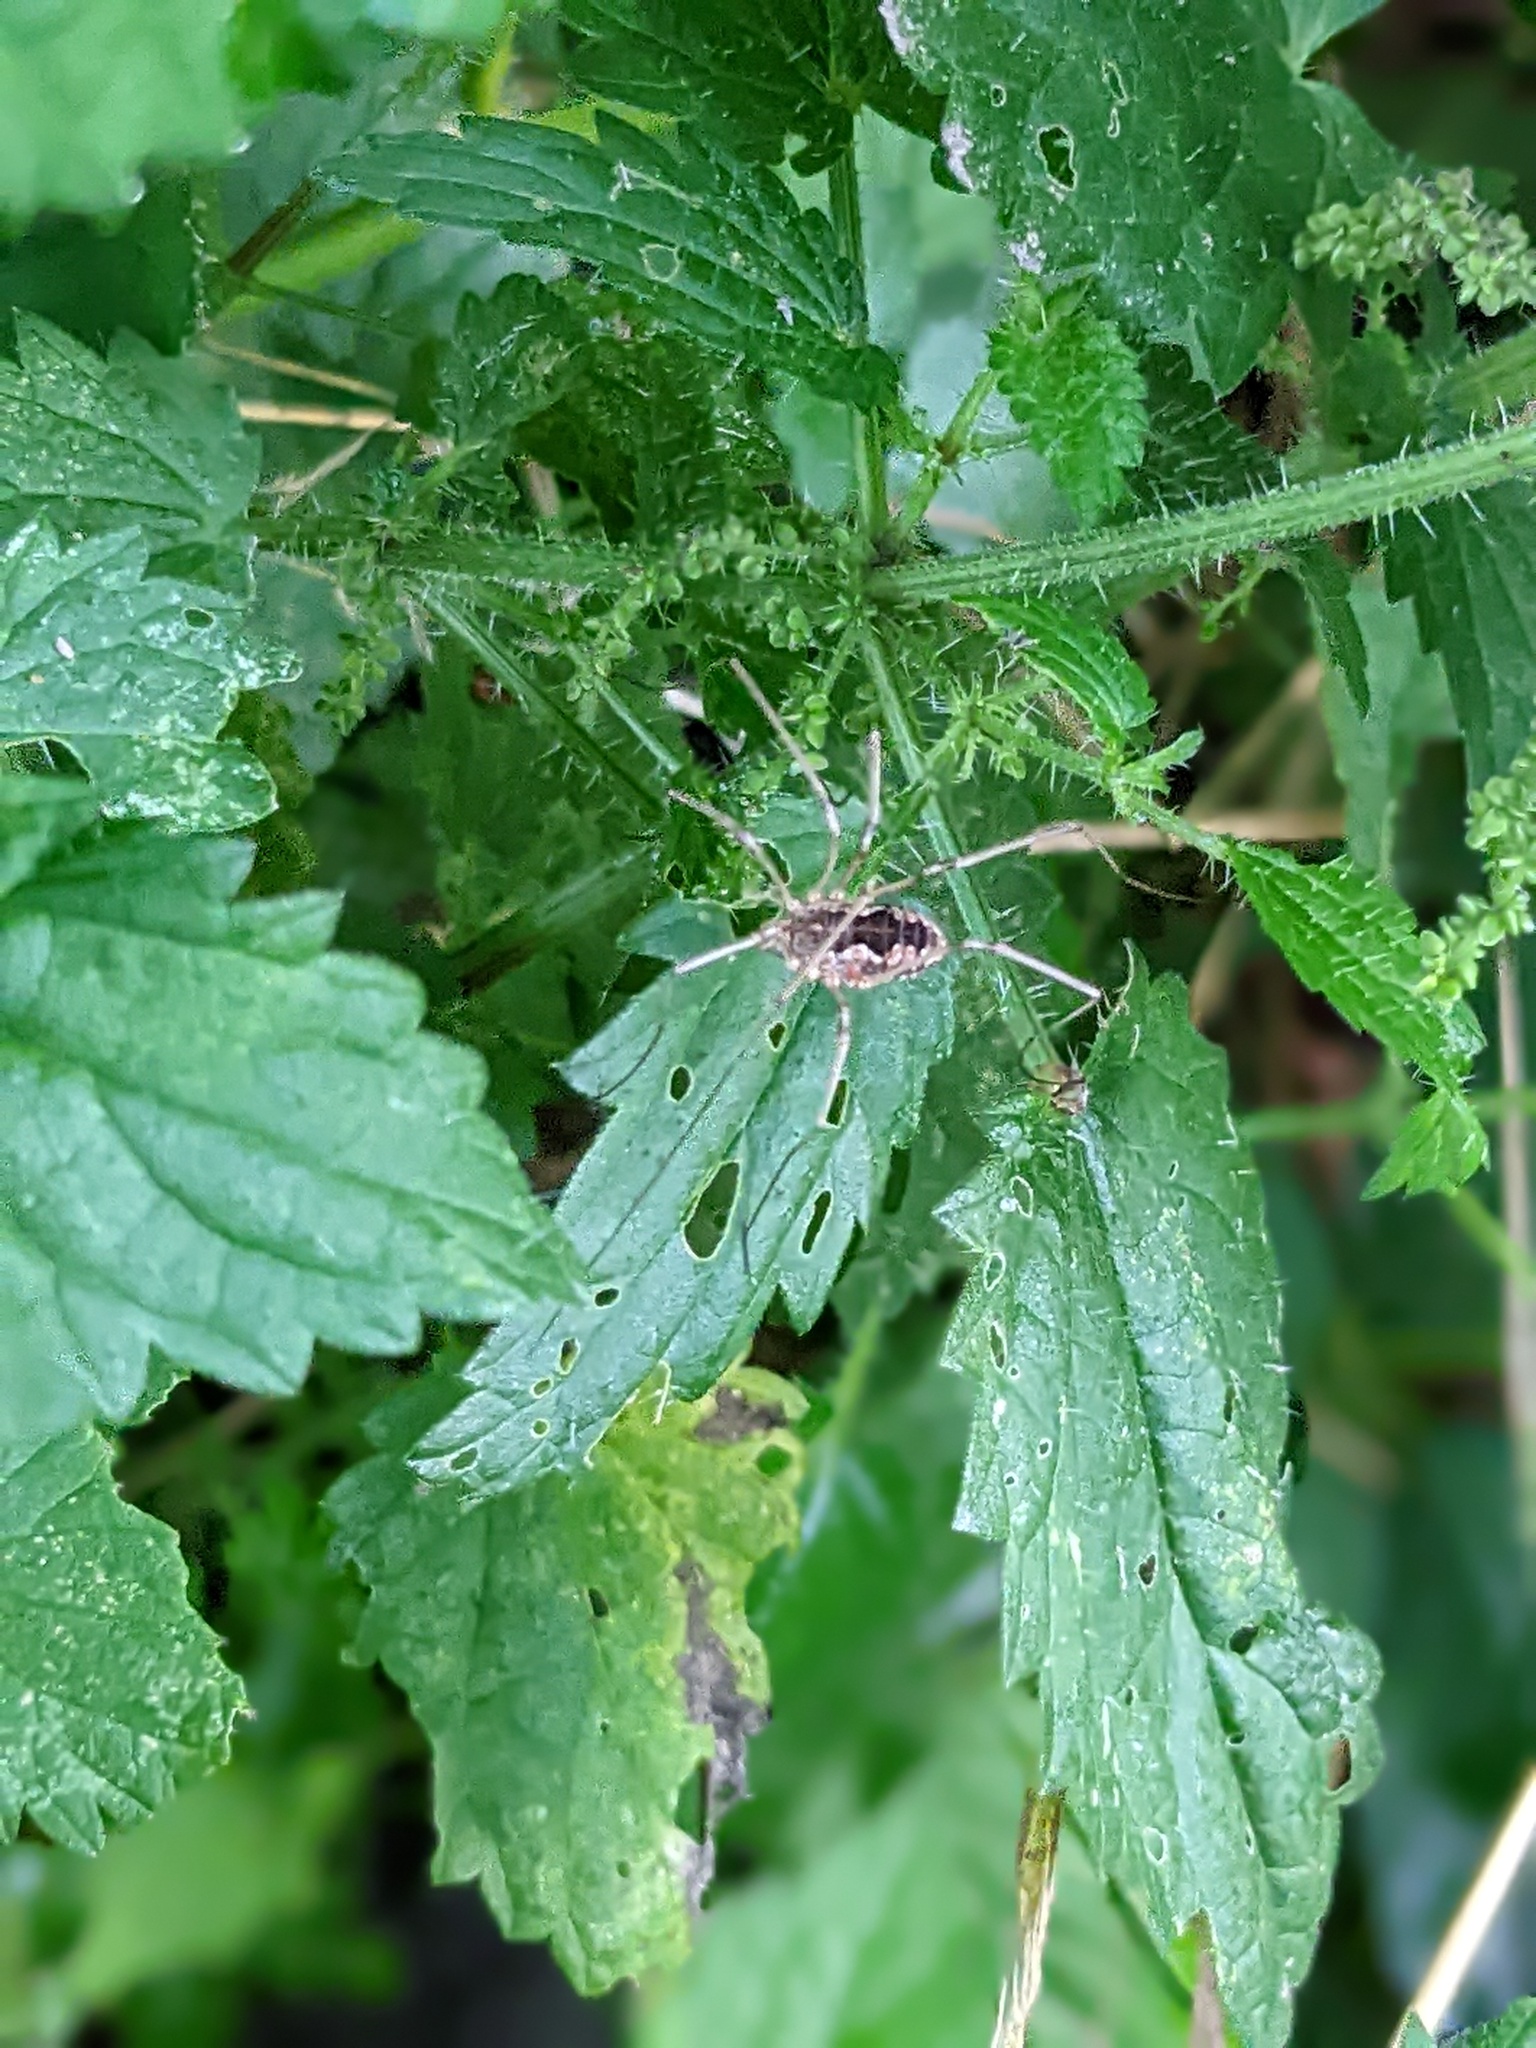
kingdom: Animalia
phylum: Arthropoda
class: Arachnida
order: Opiliones
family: Phalangiidae
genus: Phalangium
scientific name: Phalangium opilio
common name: Daddy longleg
